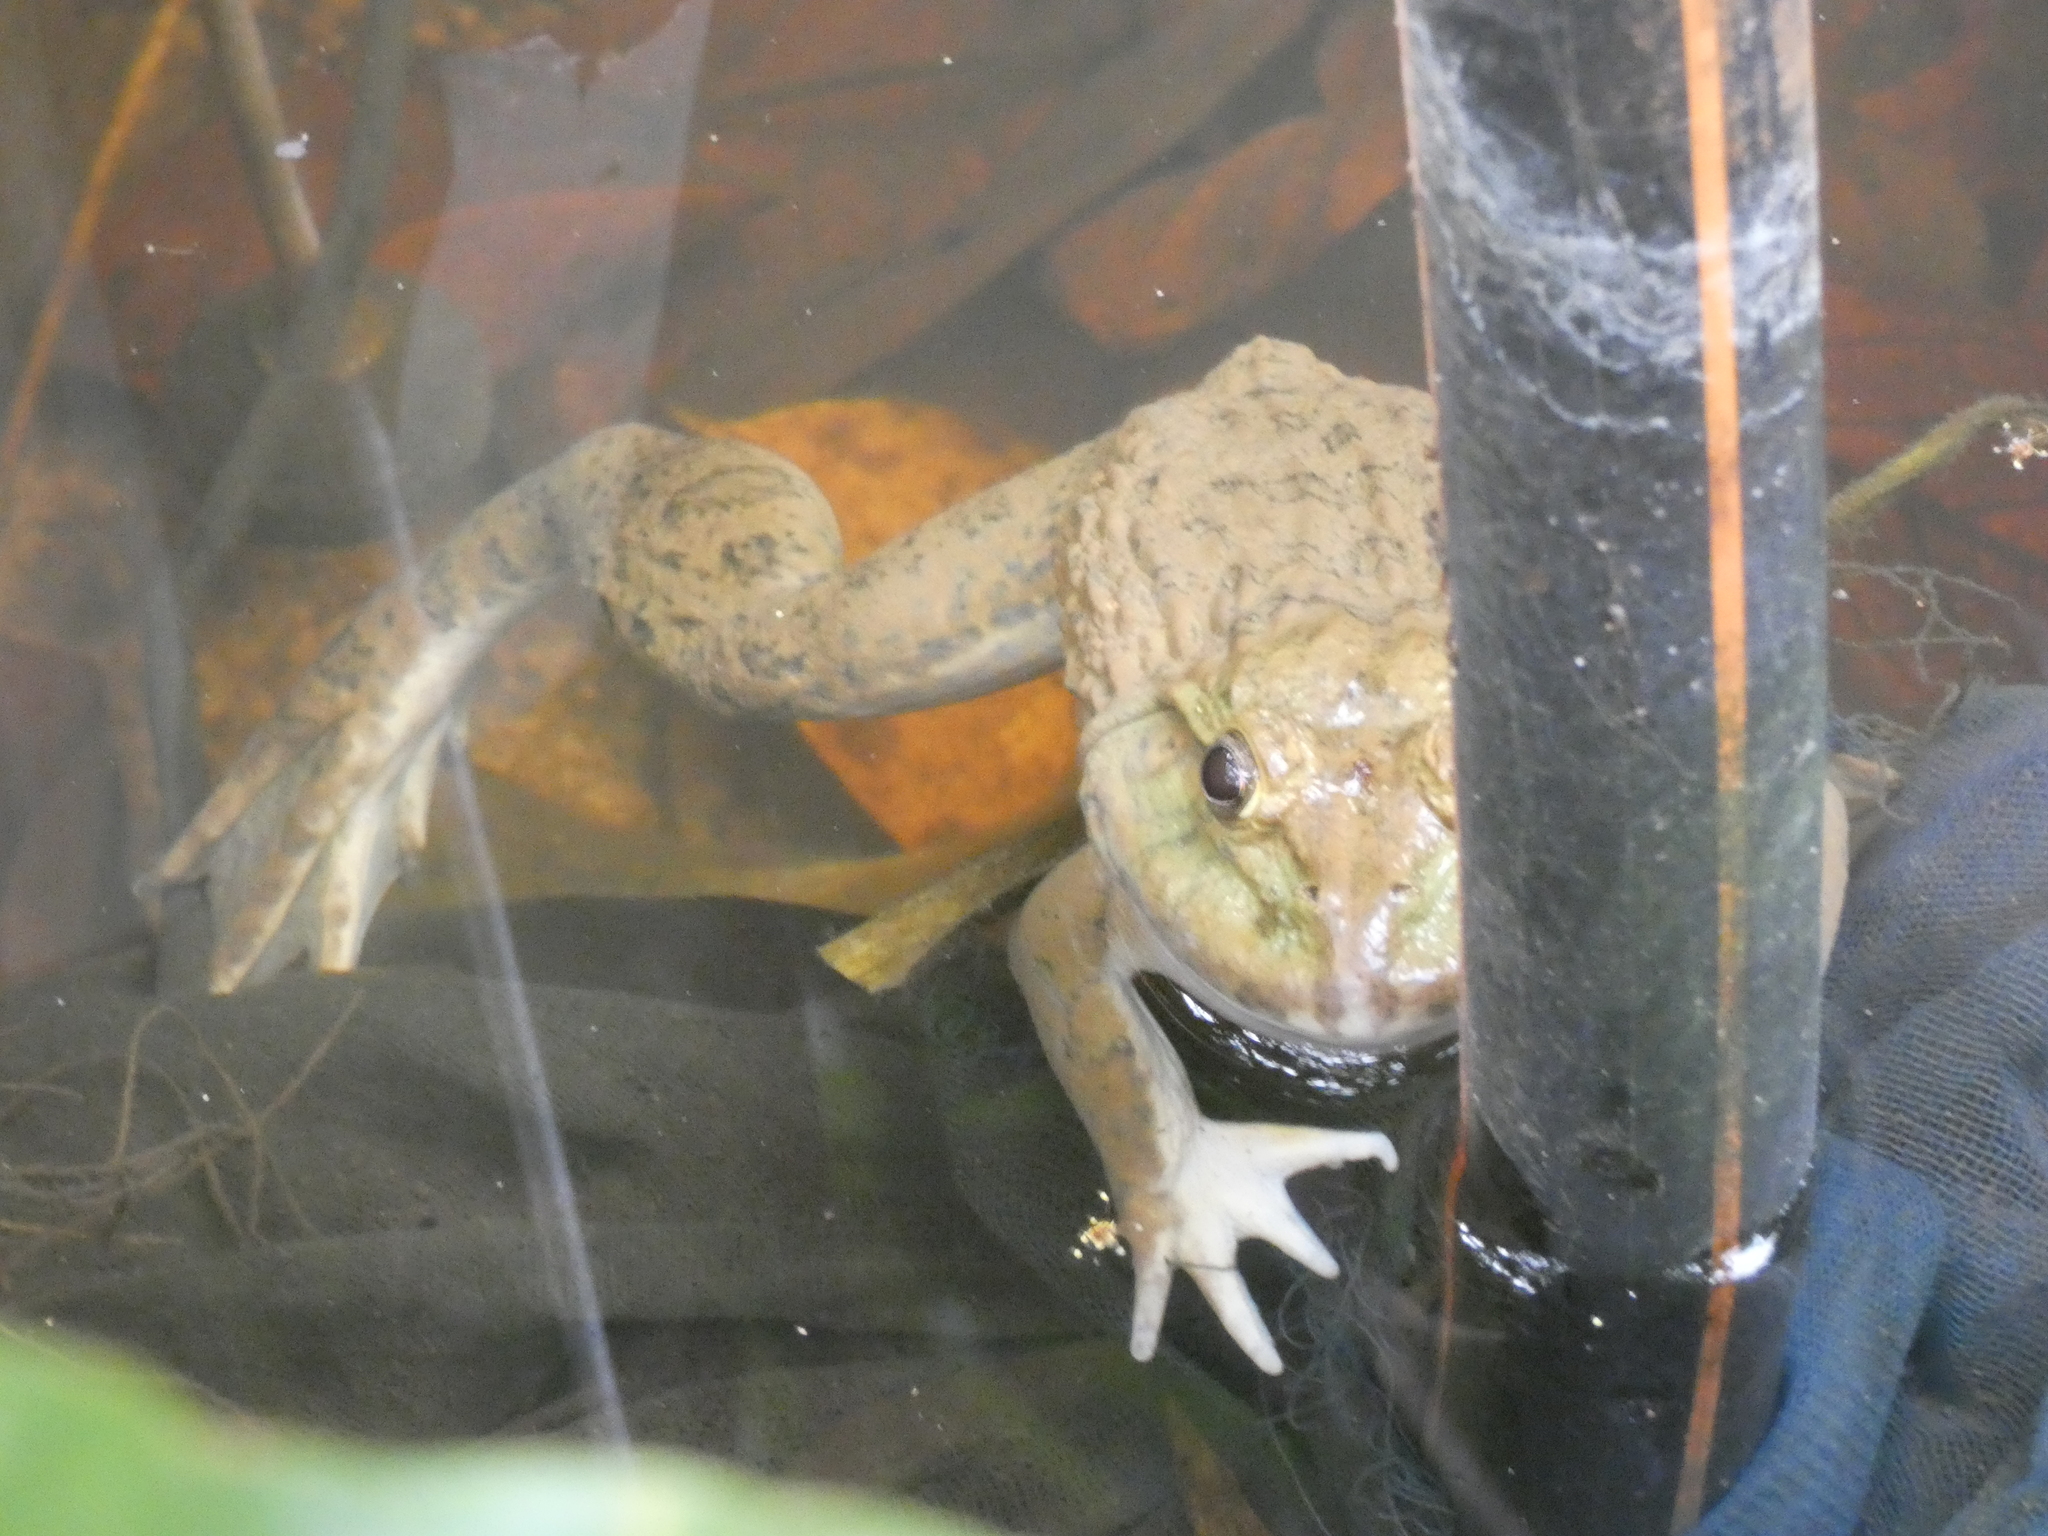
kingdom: Animalia
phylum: Chordata
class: Amphibia
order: Anura
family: Dicroglossidae
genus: Hoplobatrachus
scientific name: Hoplobatrachus rugulosus
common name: Chinese edible frog
